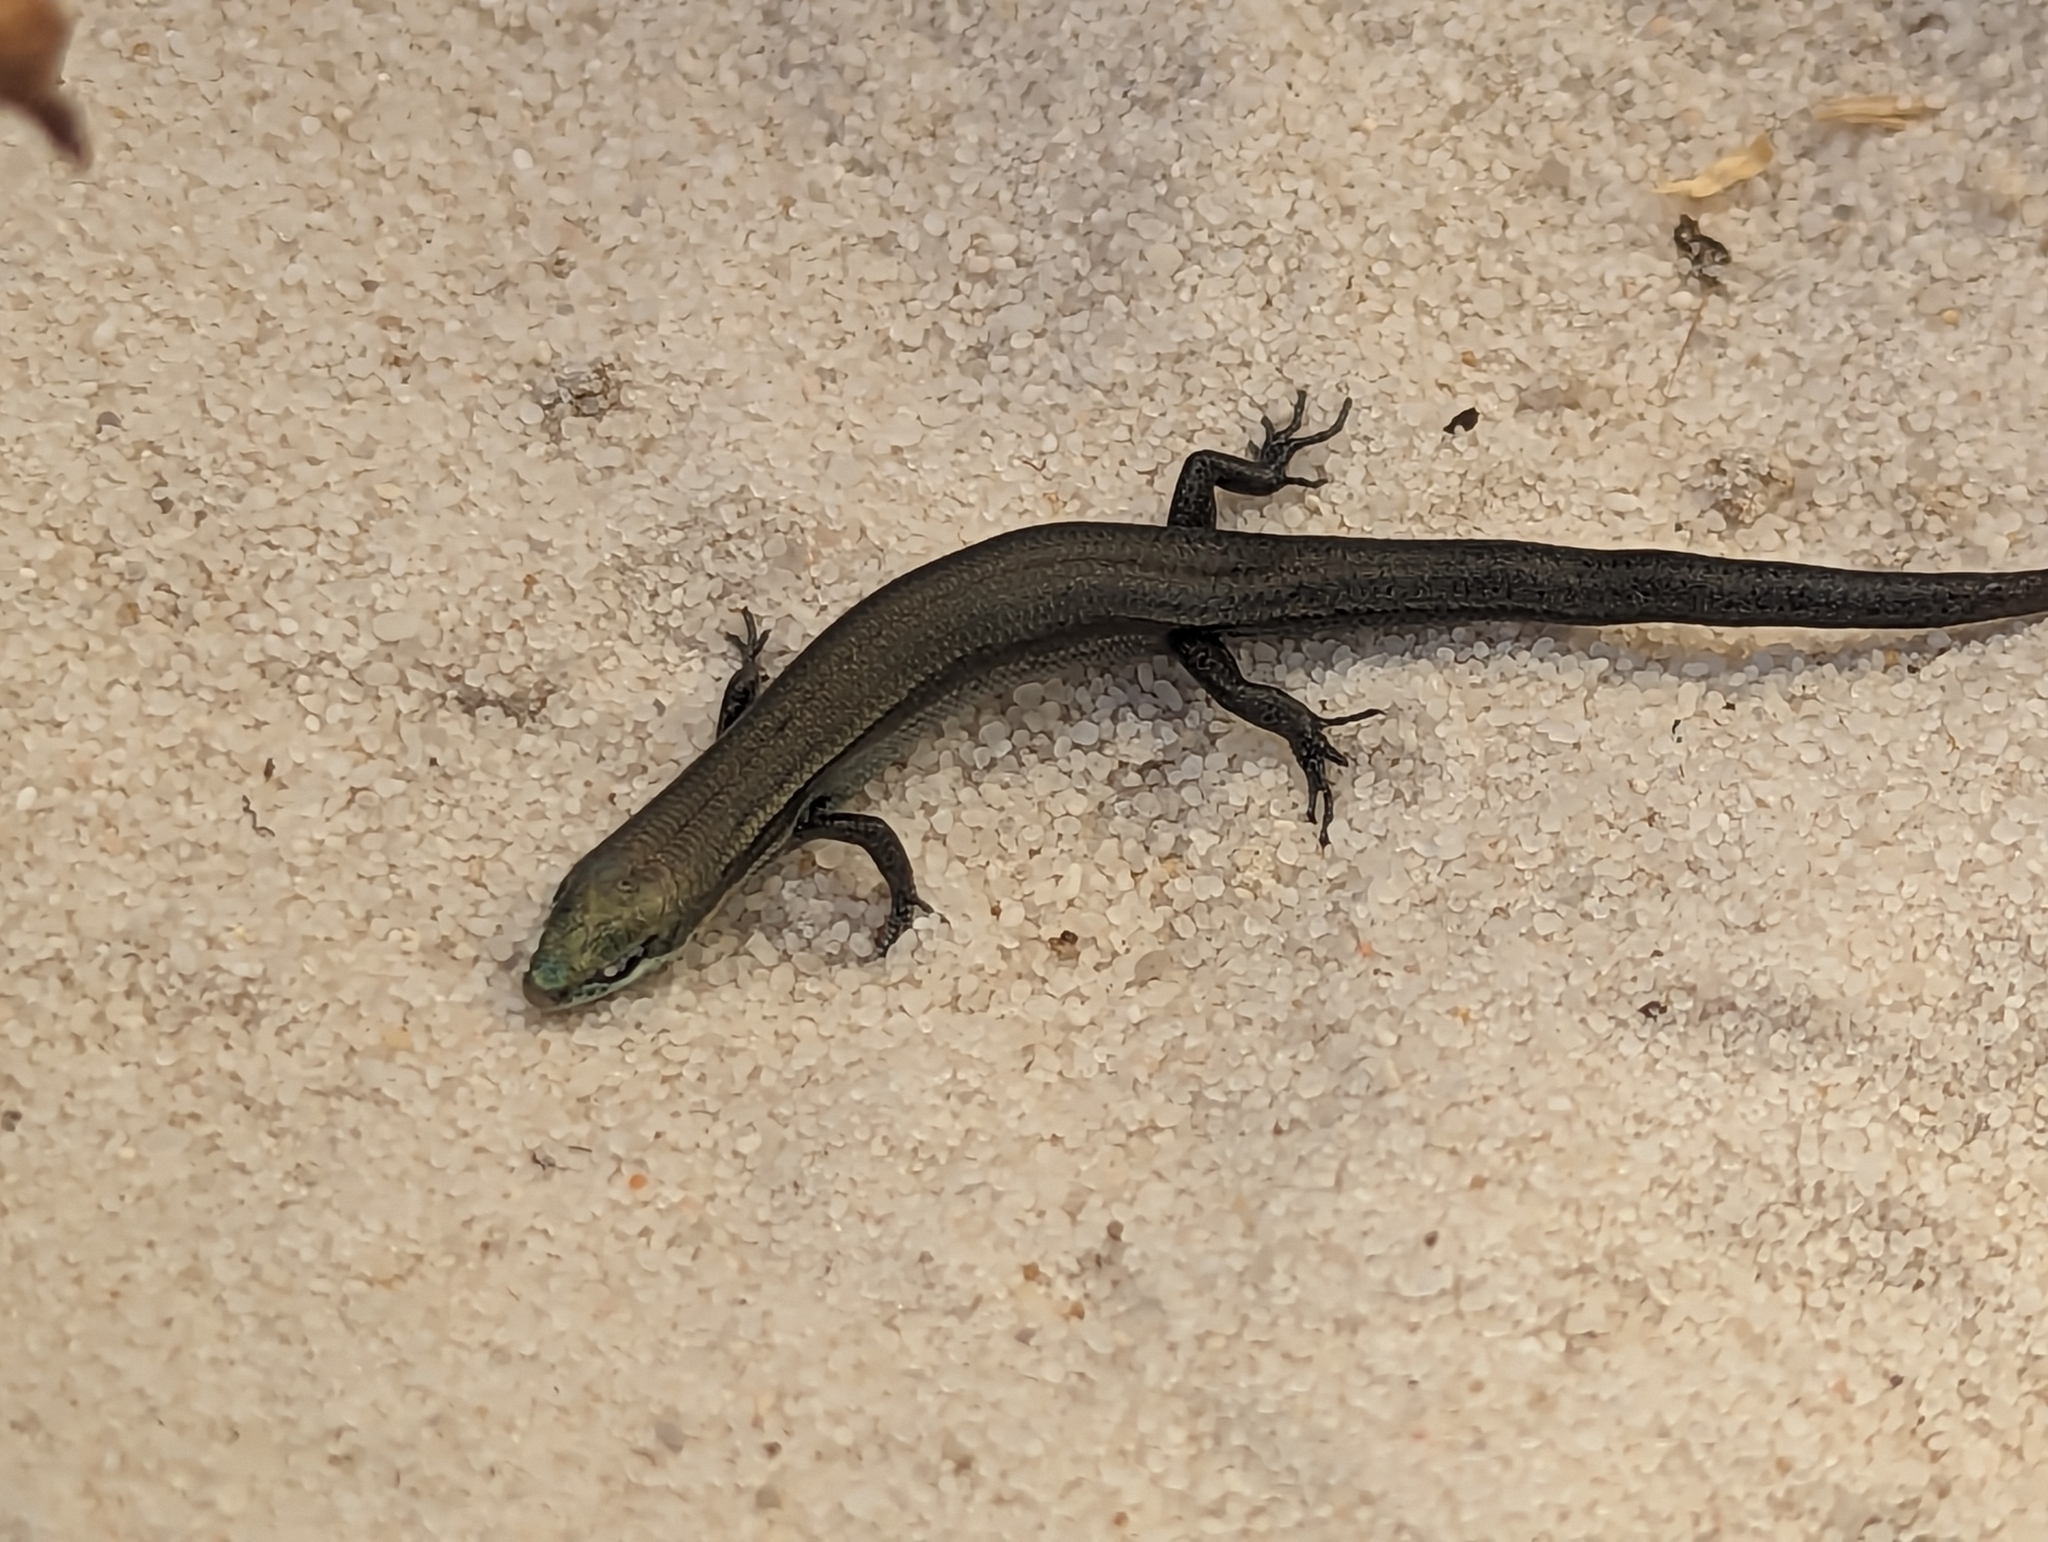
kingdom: Animalia
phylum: Chordata
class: Squamata
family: Scincidae
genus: Acritoscincus
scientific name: Acritoscincus trilineatus
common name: New holland skink
